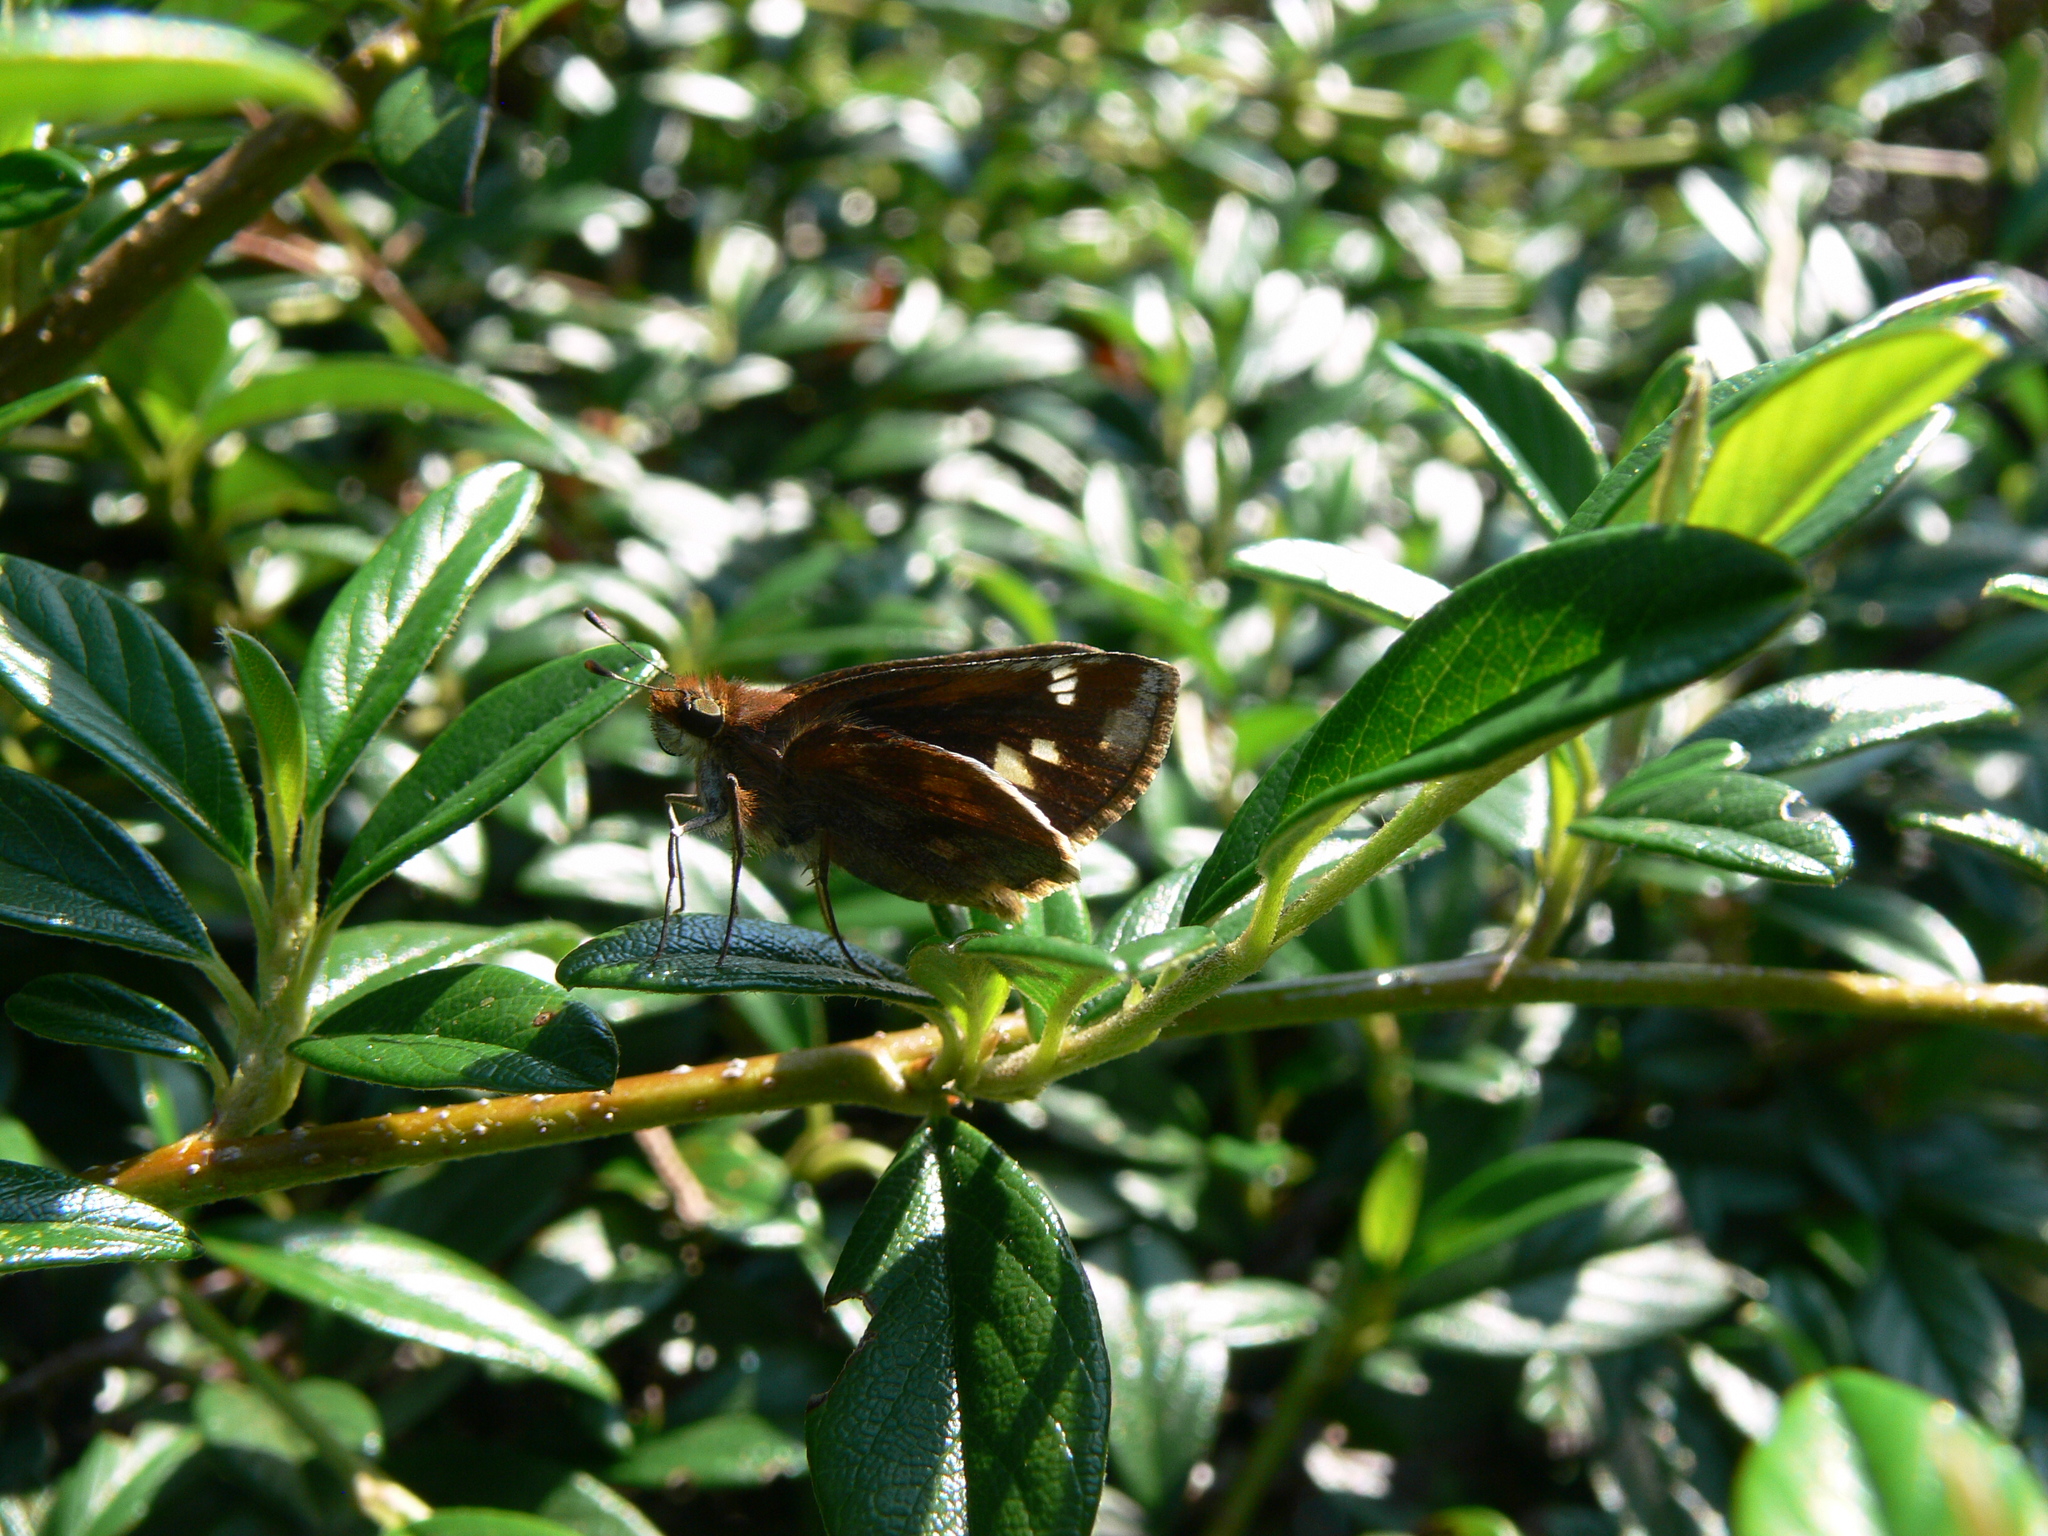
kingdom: Animalia
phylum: Arthropoda
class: Insecta
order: Lepidoptera
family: Hesperiidae
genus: Lon
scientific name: Lon zabulon
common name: Zabulon skipper
